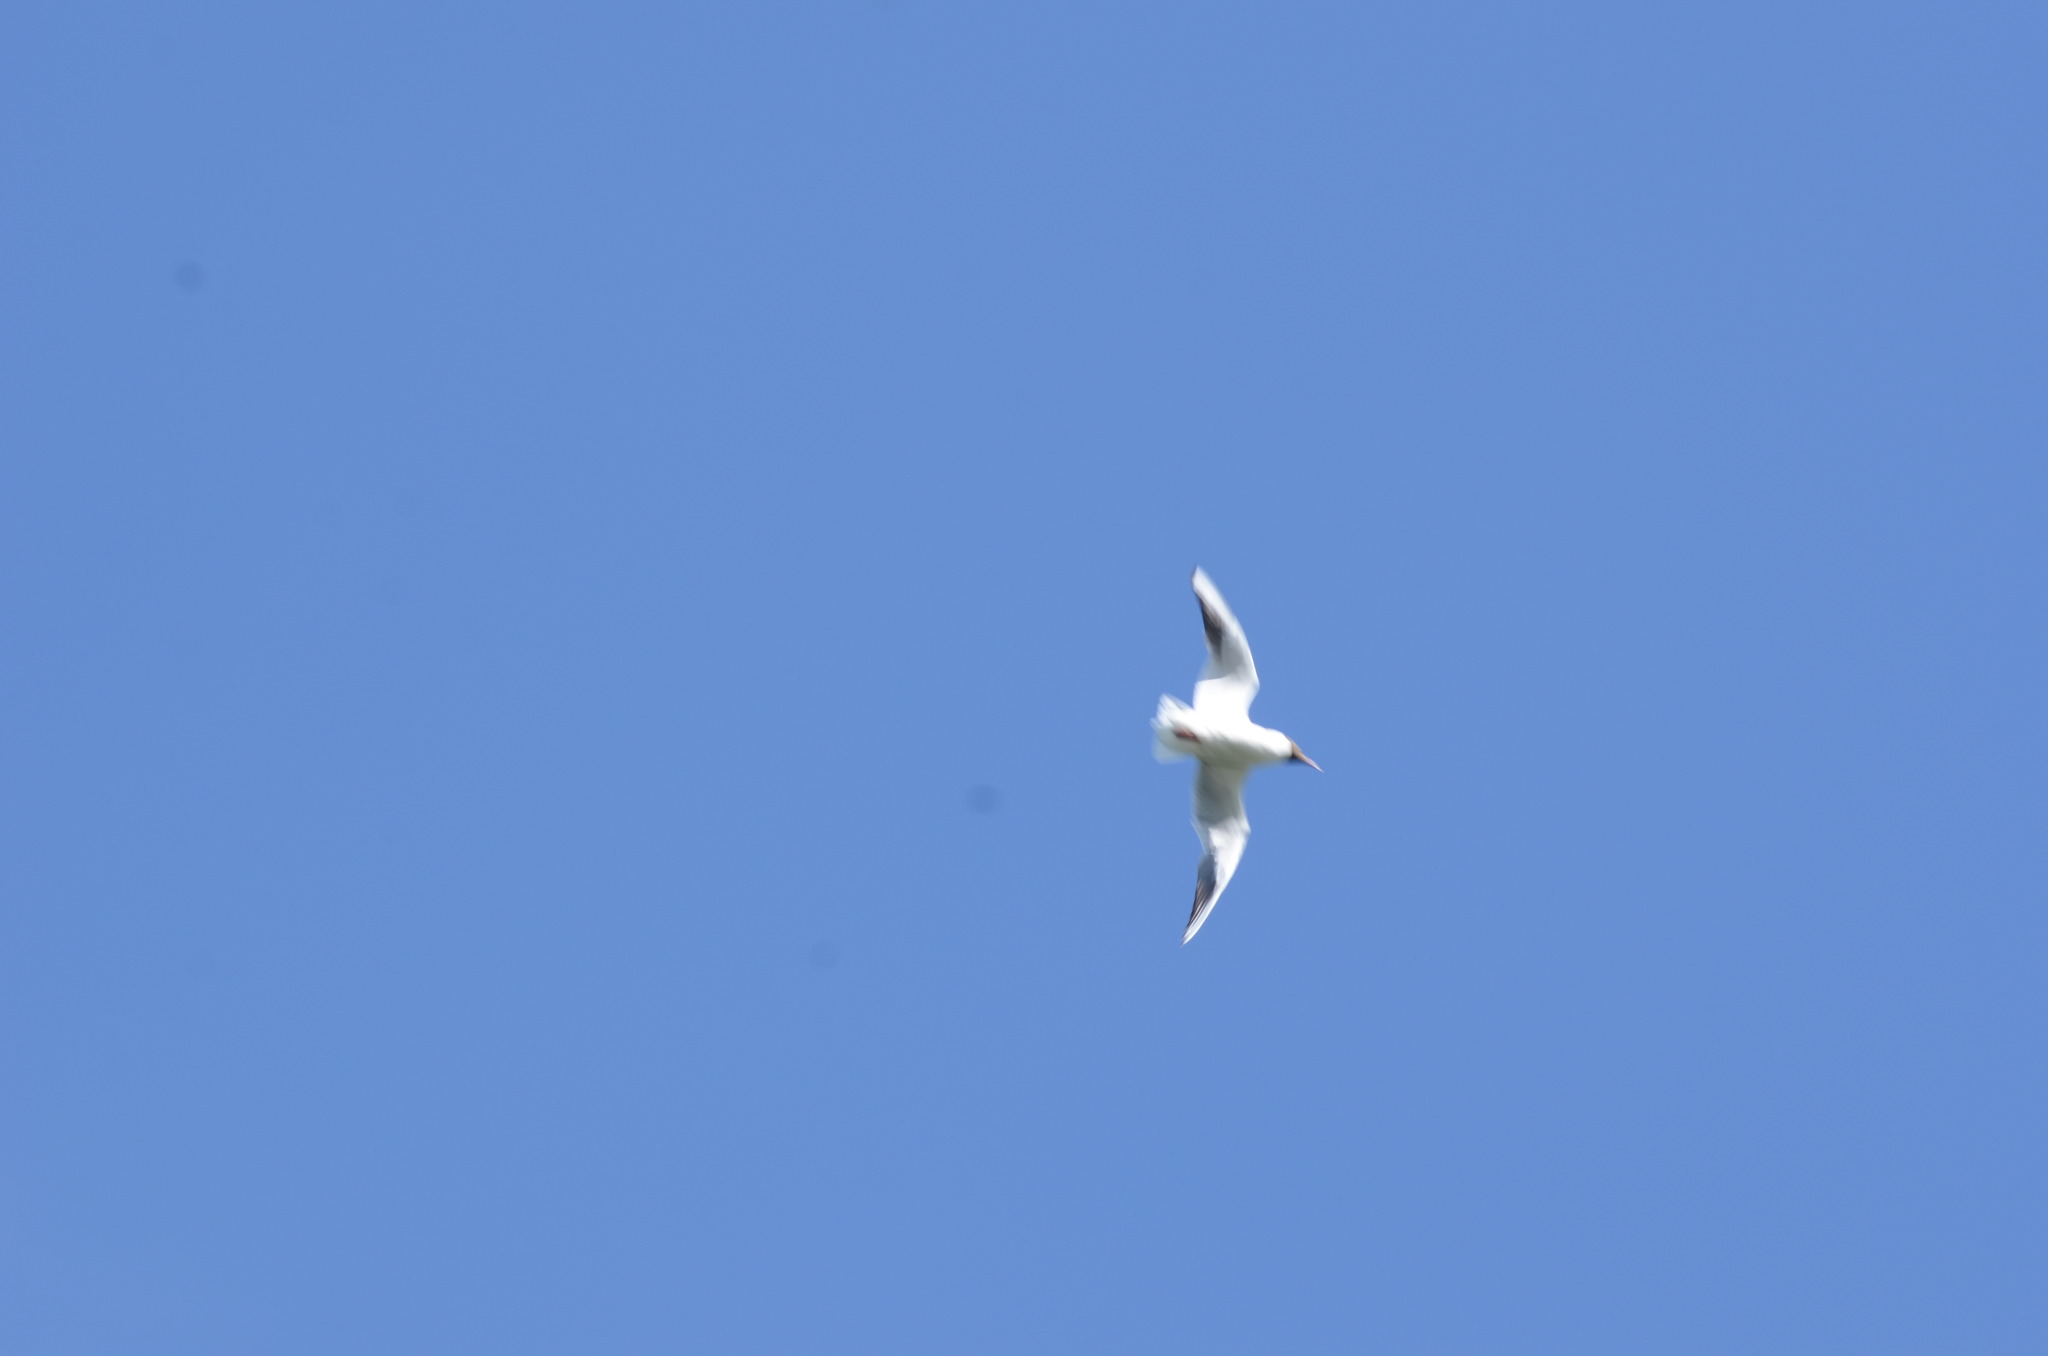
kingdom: Animalia
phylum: Chordata
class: Aves
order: Charadriiformes
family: Laridae
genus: Chroicocephalus
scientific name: Chroicocephalus ridibundus
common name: Black-headed gull
